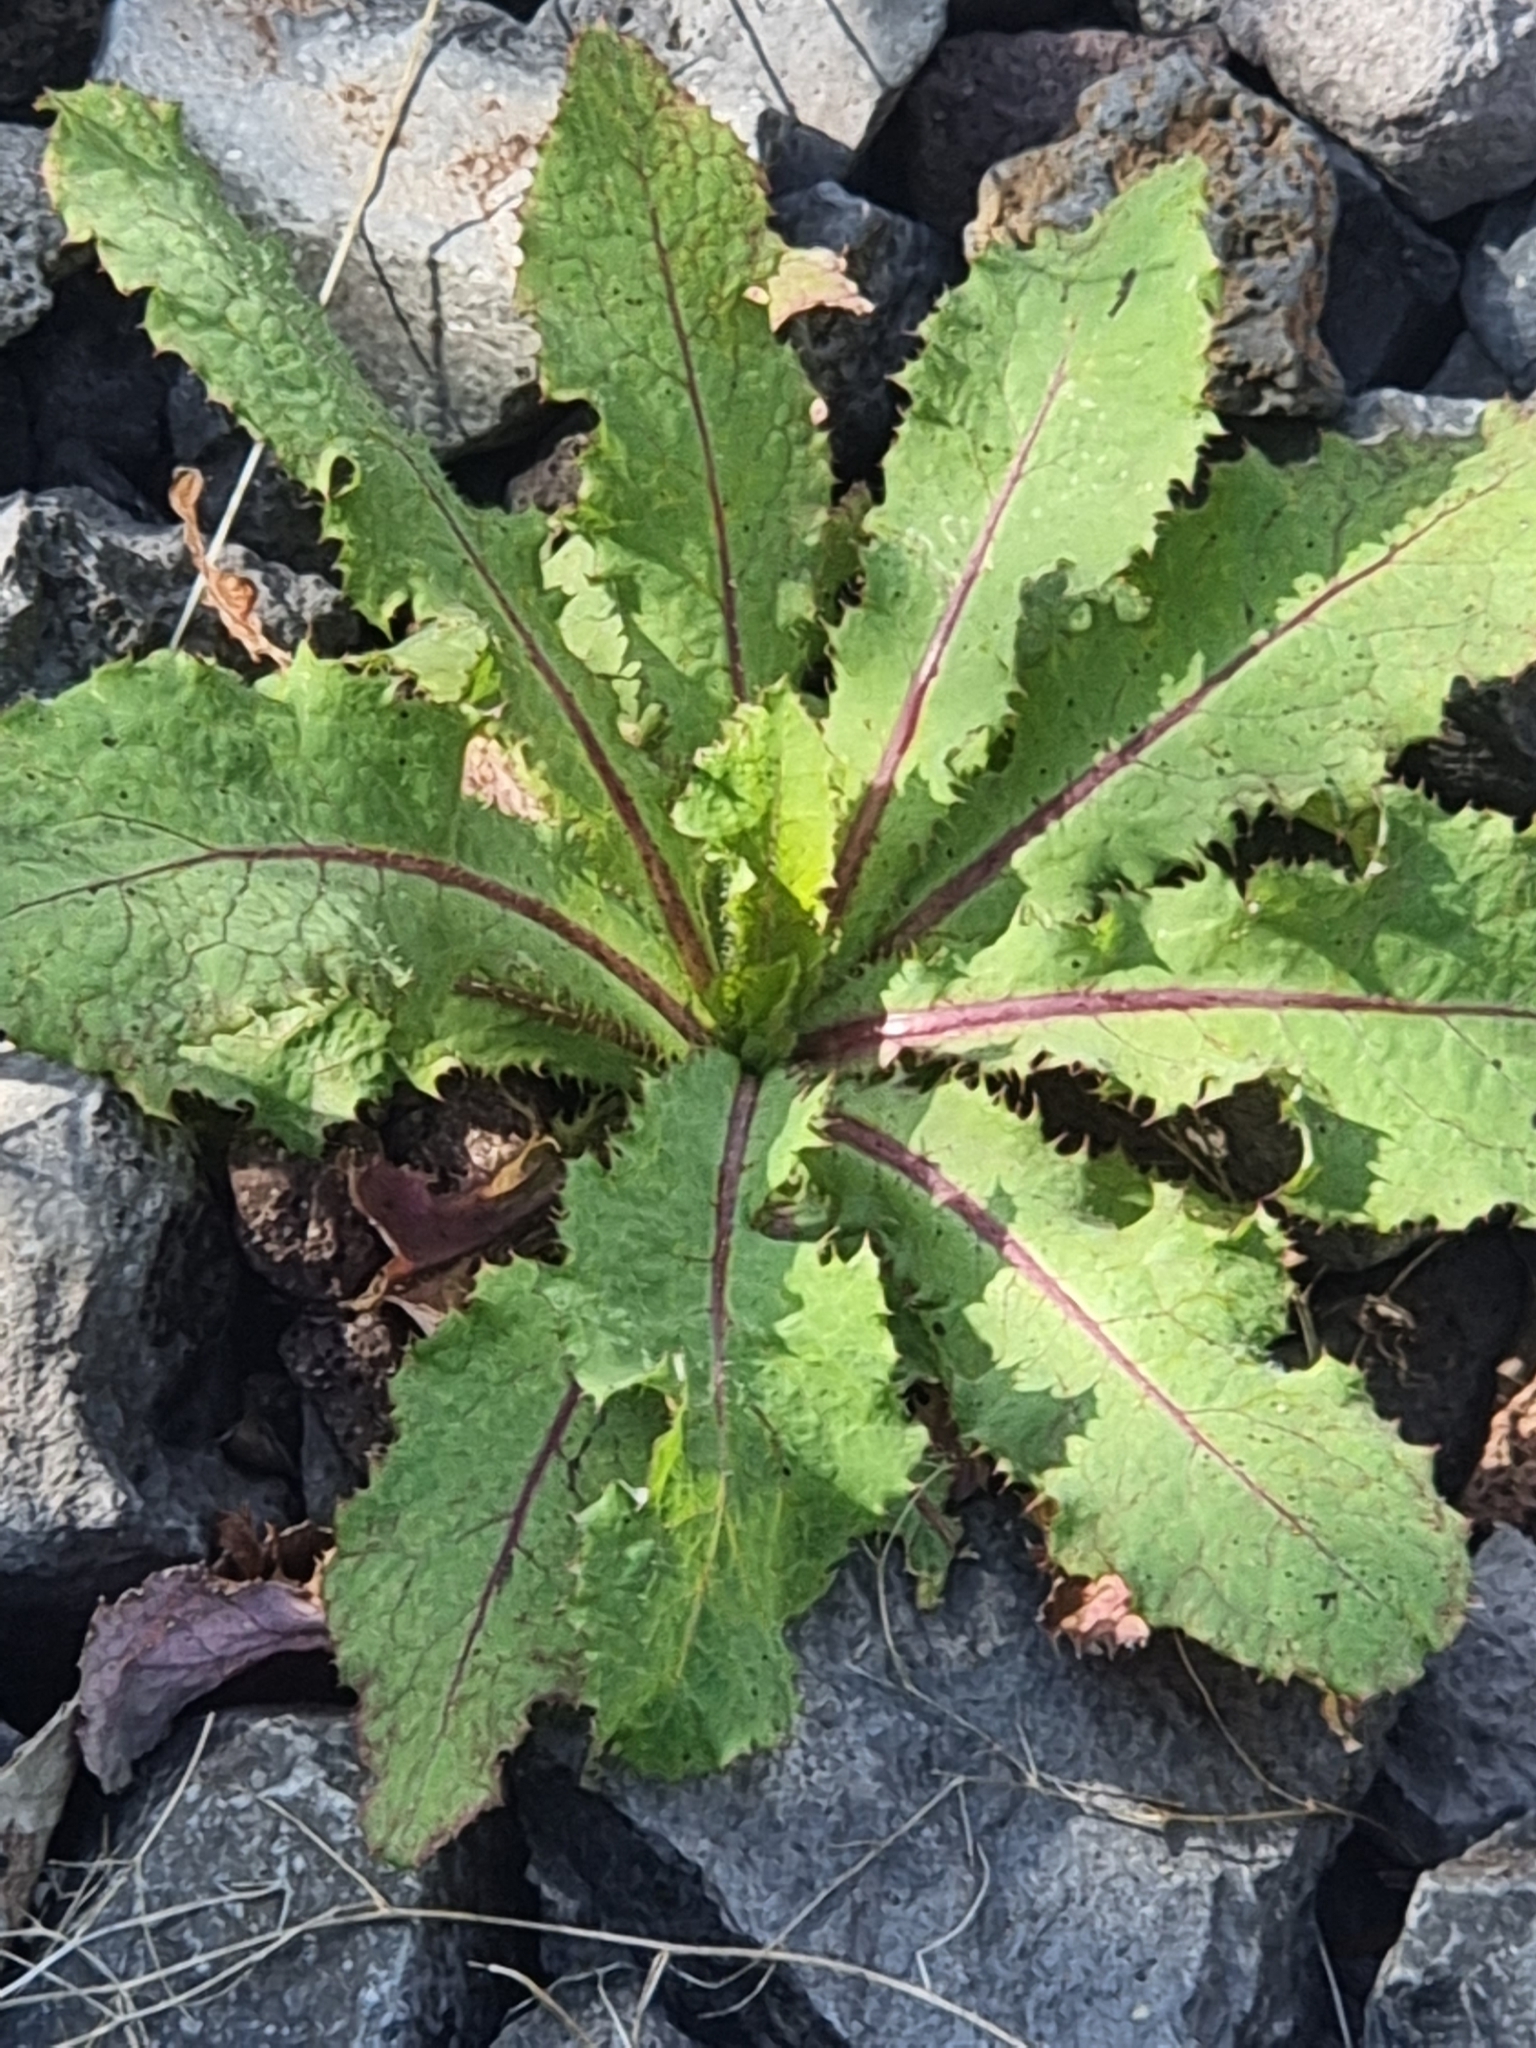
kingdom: Plantae
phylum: Tracheophyta
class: Magnoliopsida
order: Asterales
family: Asteraceae
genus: Lactuca
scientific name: Lactuca virosa
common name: Great lettuce
